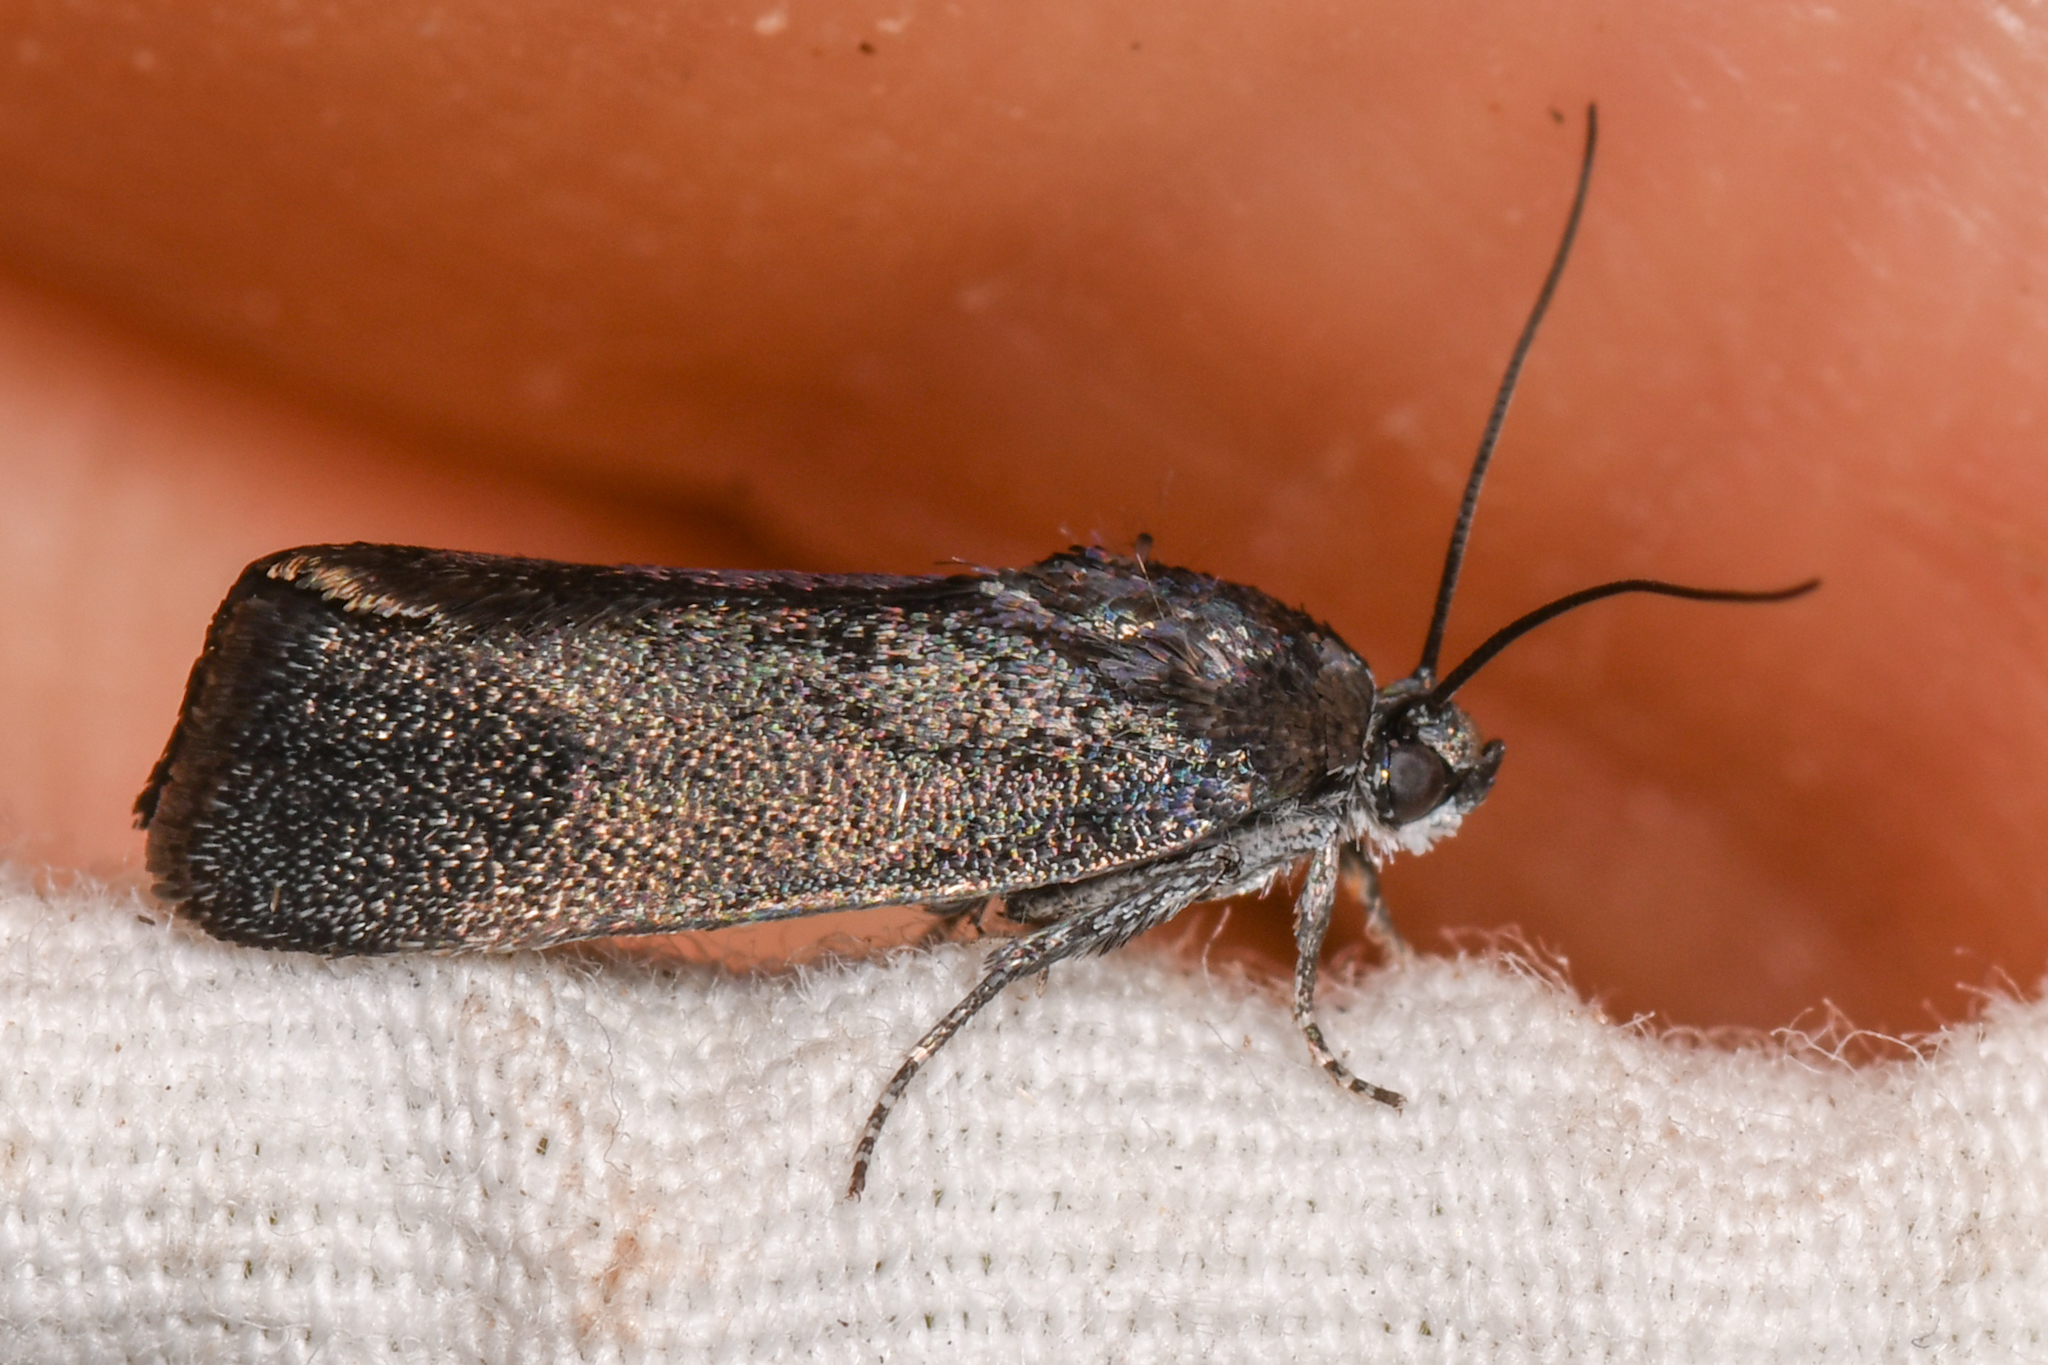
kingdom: Animalia
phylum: Arthropoda
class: Insecta
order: Lepidoptera
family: Noctuidae
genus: Acontia
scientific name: Acontia nigra
